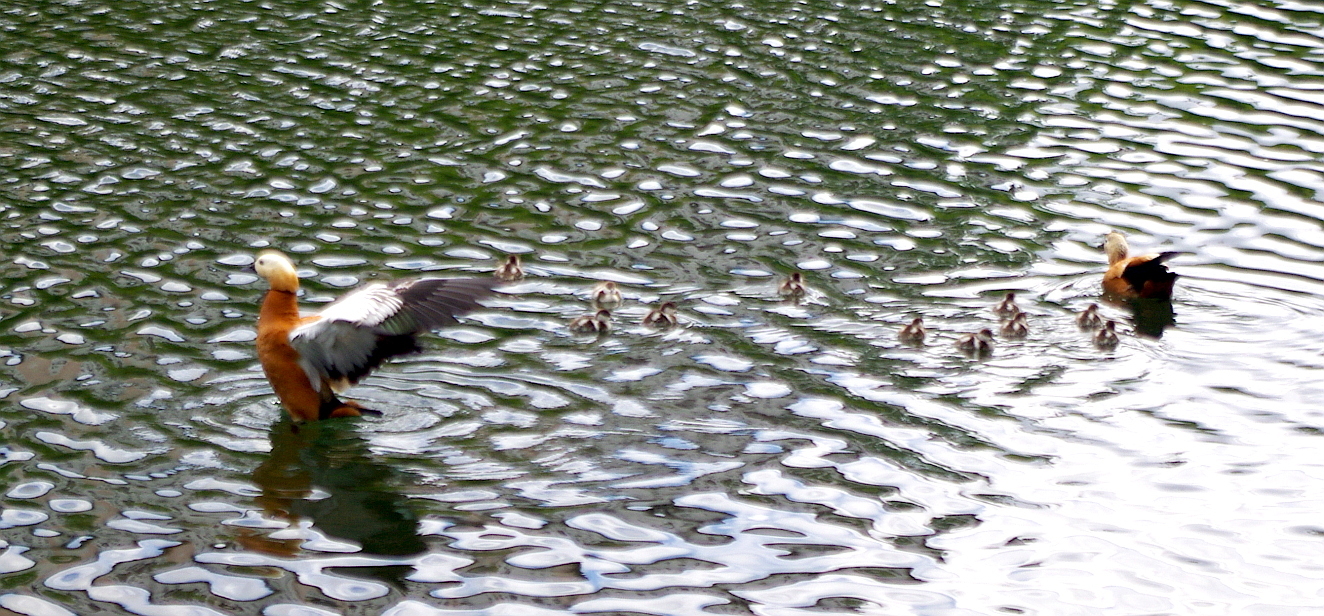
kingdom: Animalia
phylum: Chordata
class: Aves
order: Anseriformes
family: Anatidae
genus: Tadorna
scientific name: Tadorna ferruginea
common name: Ruddy shelduck
